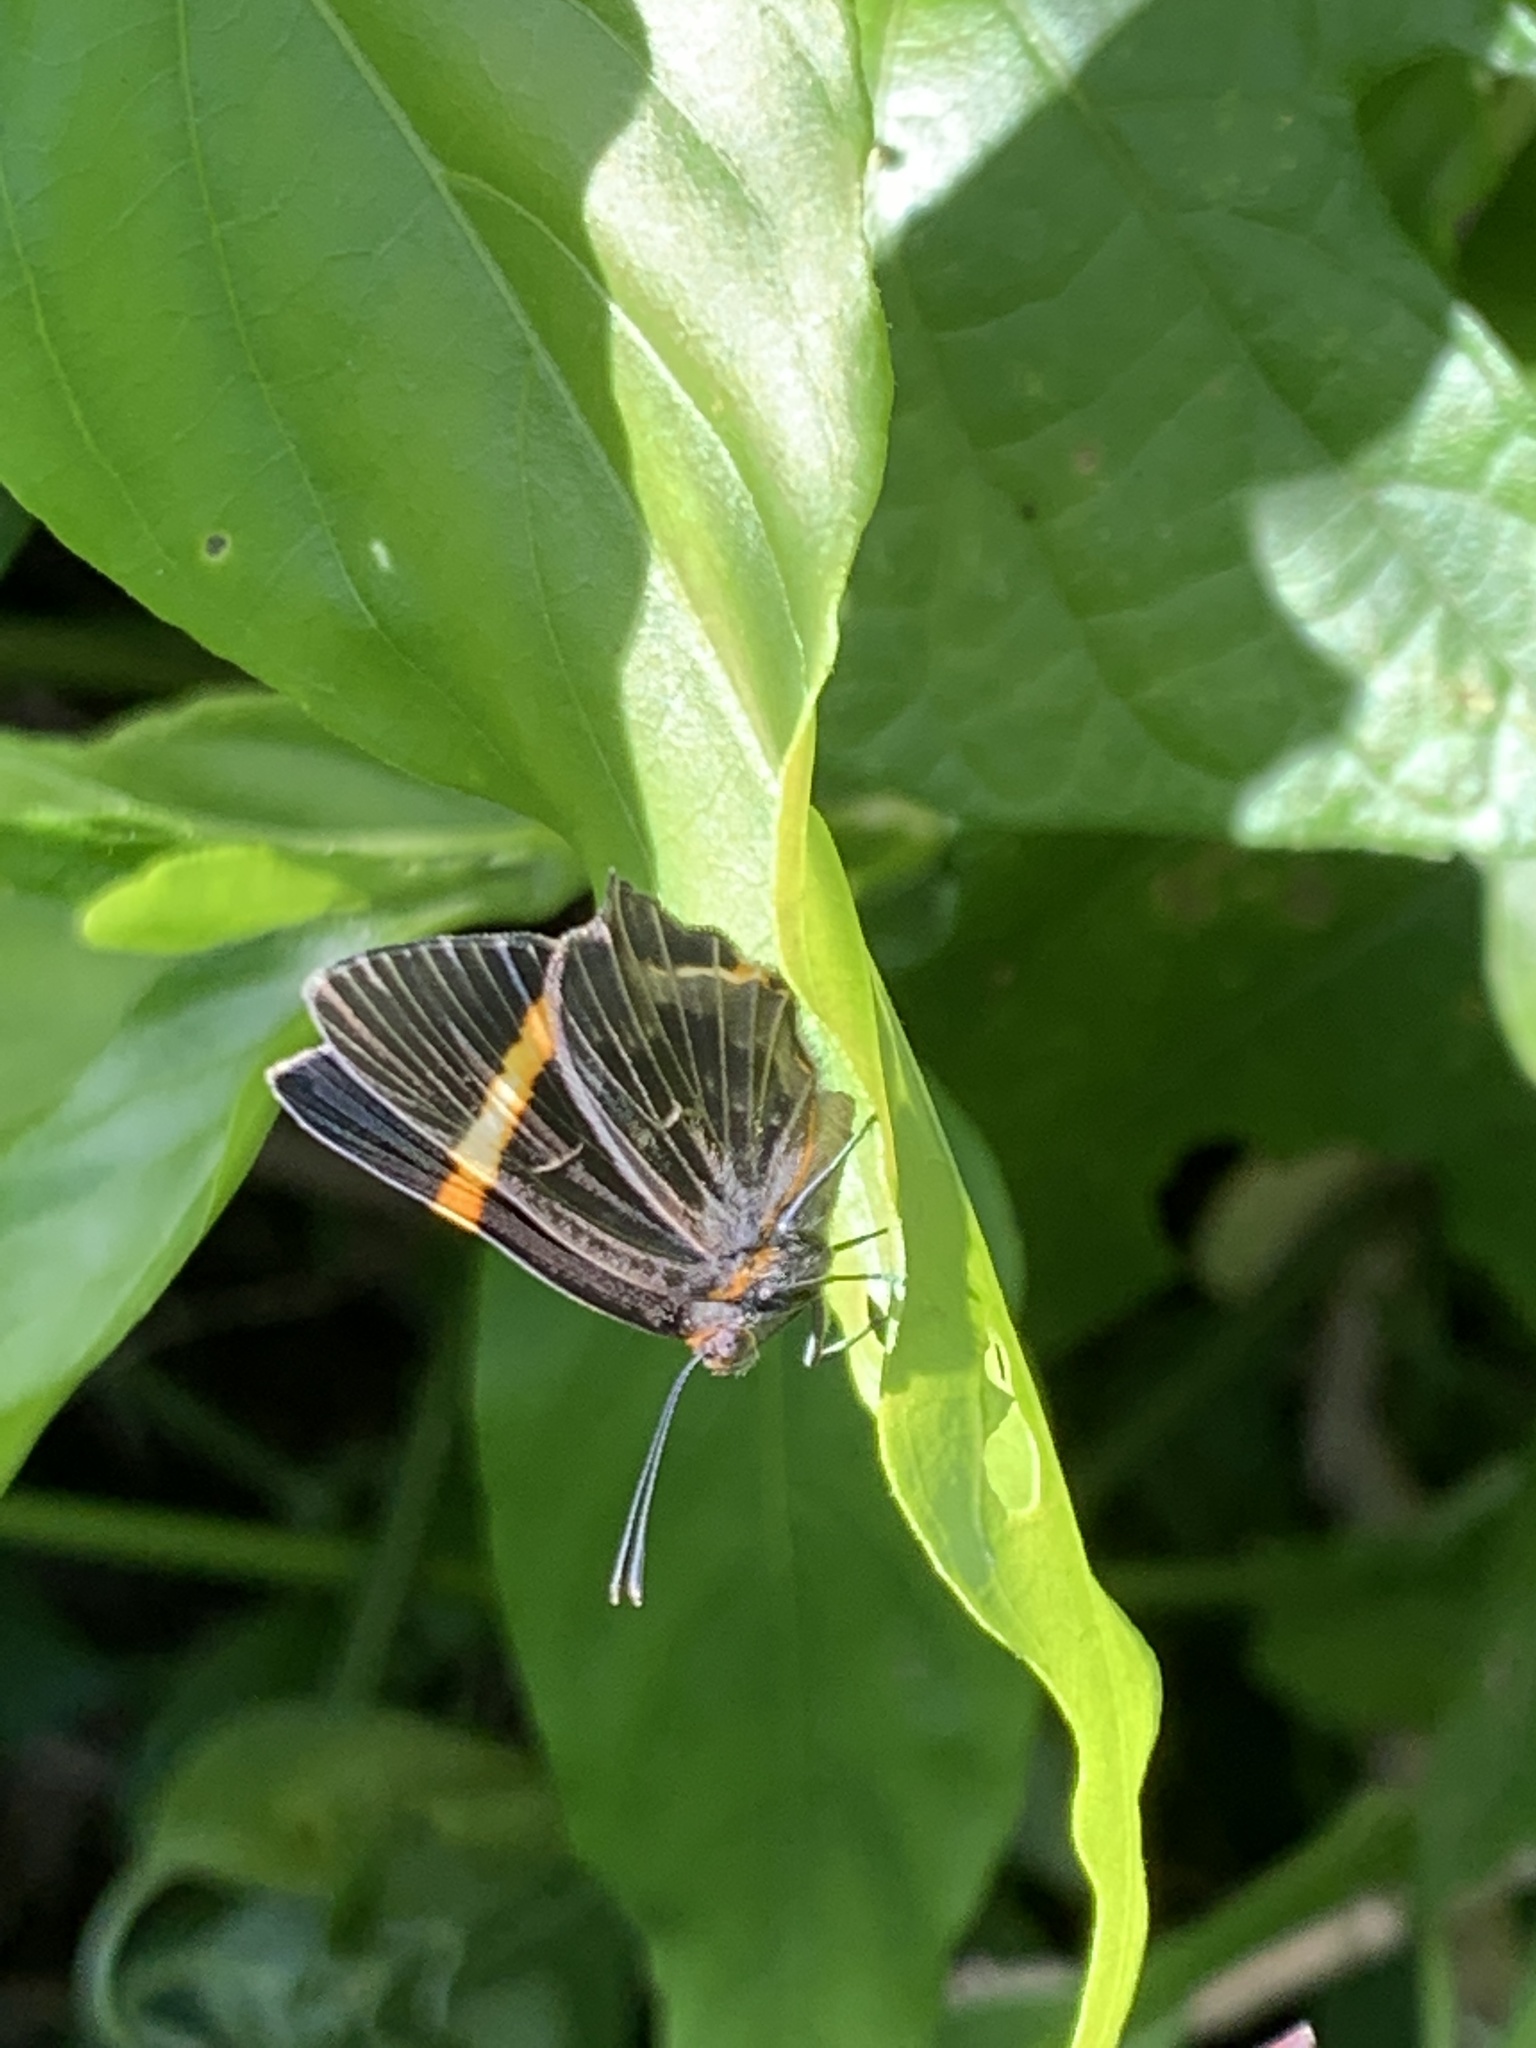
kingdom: Animalia
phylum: Arthropoda
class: Insecta
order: Lepidoptera
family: Riodinidae
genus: Riodina
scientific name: Riodina lysippoides
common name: Little dancer metalmark
